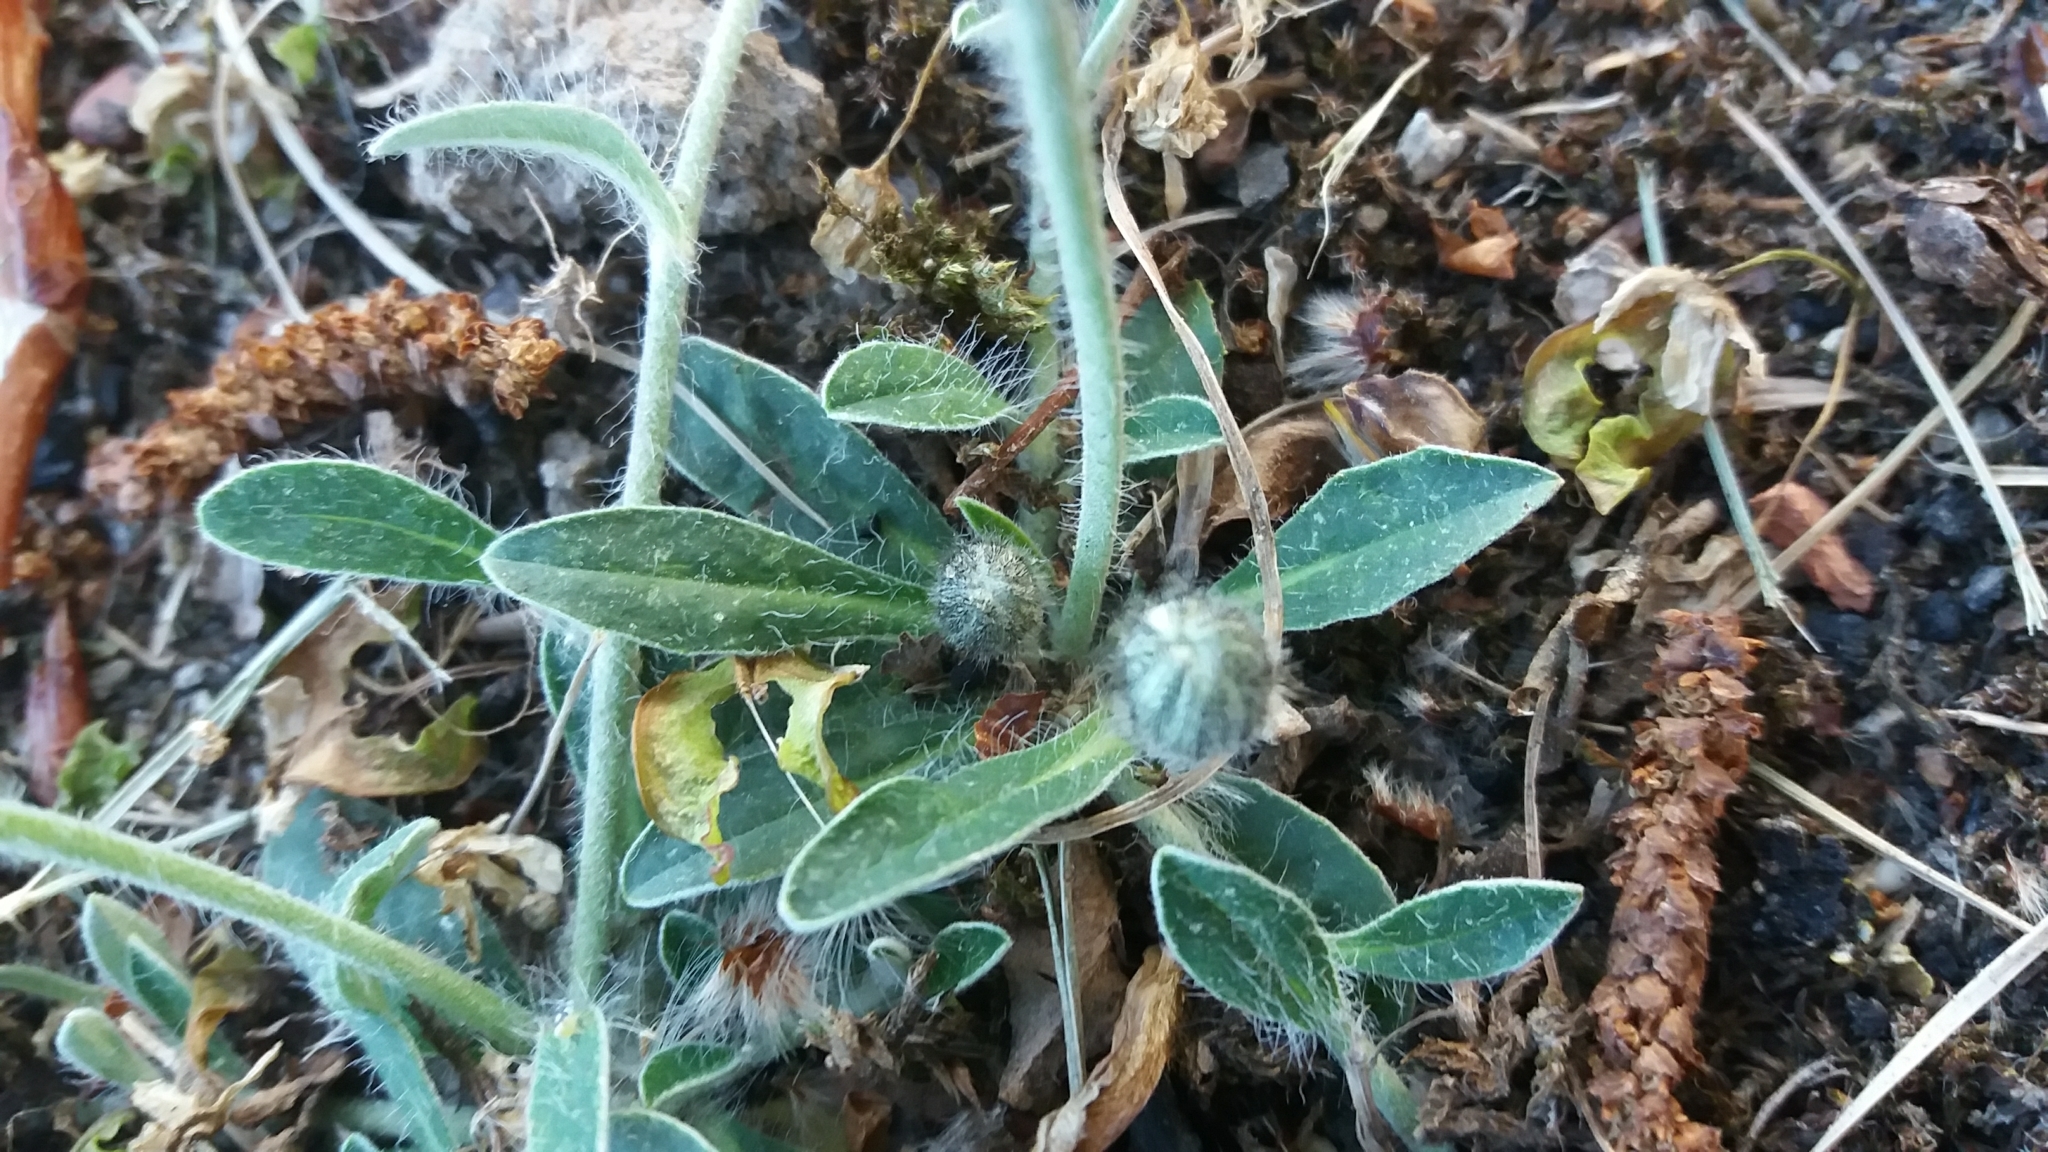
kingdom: Plantae
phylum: Tracheophyta
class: Magnoliopsida
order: Asterales
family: Asteraceae
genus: Pilosella
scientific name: Pilosella officinarum
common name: Mouse-ear hawkweed
